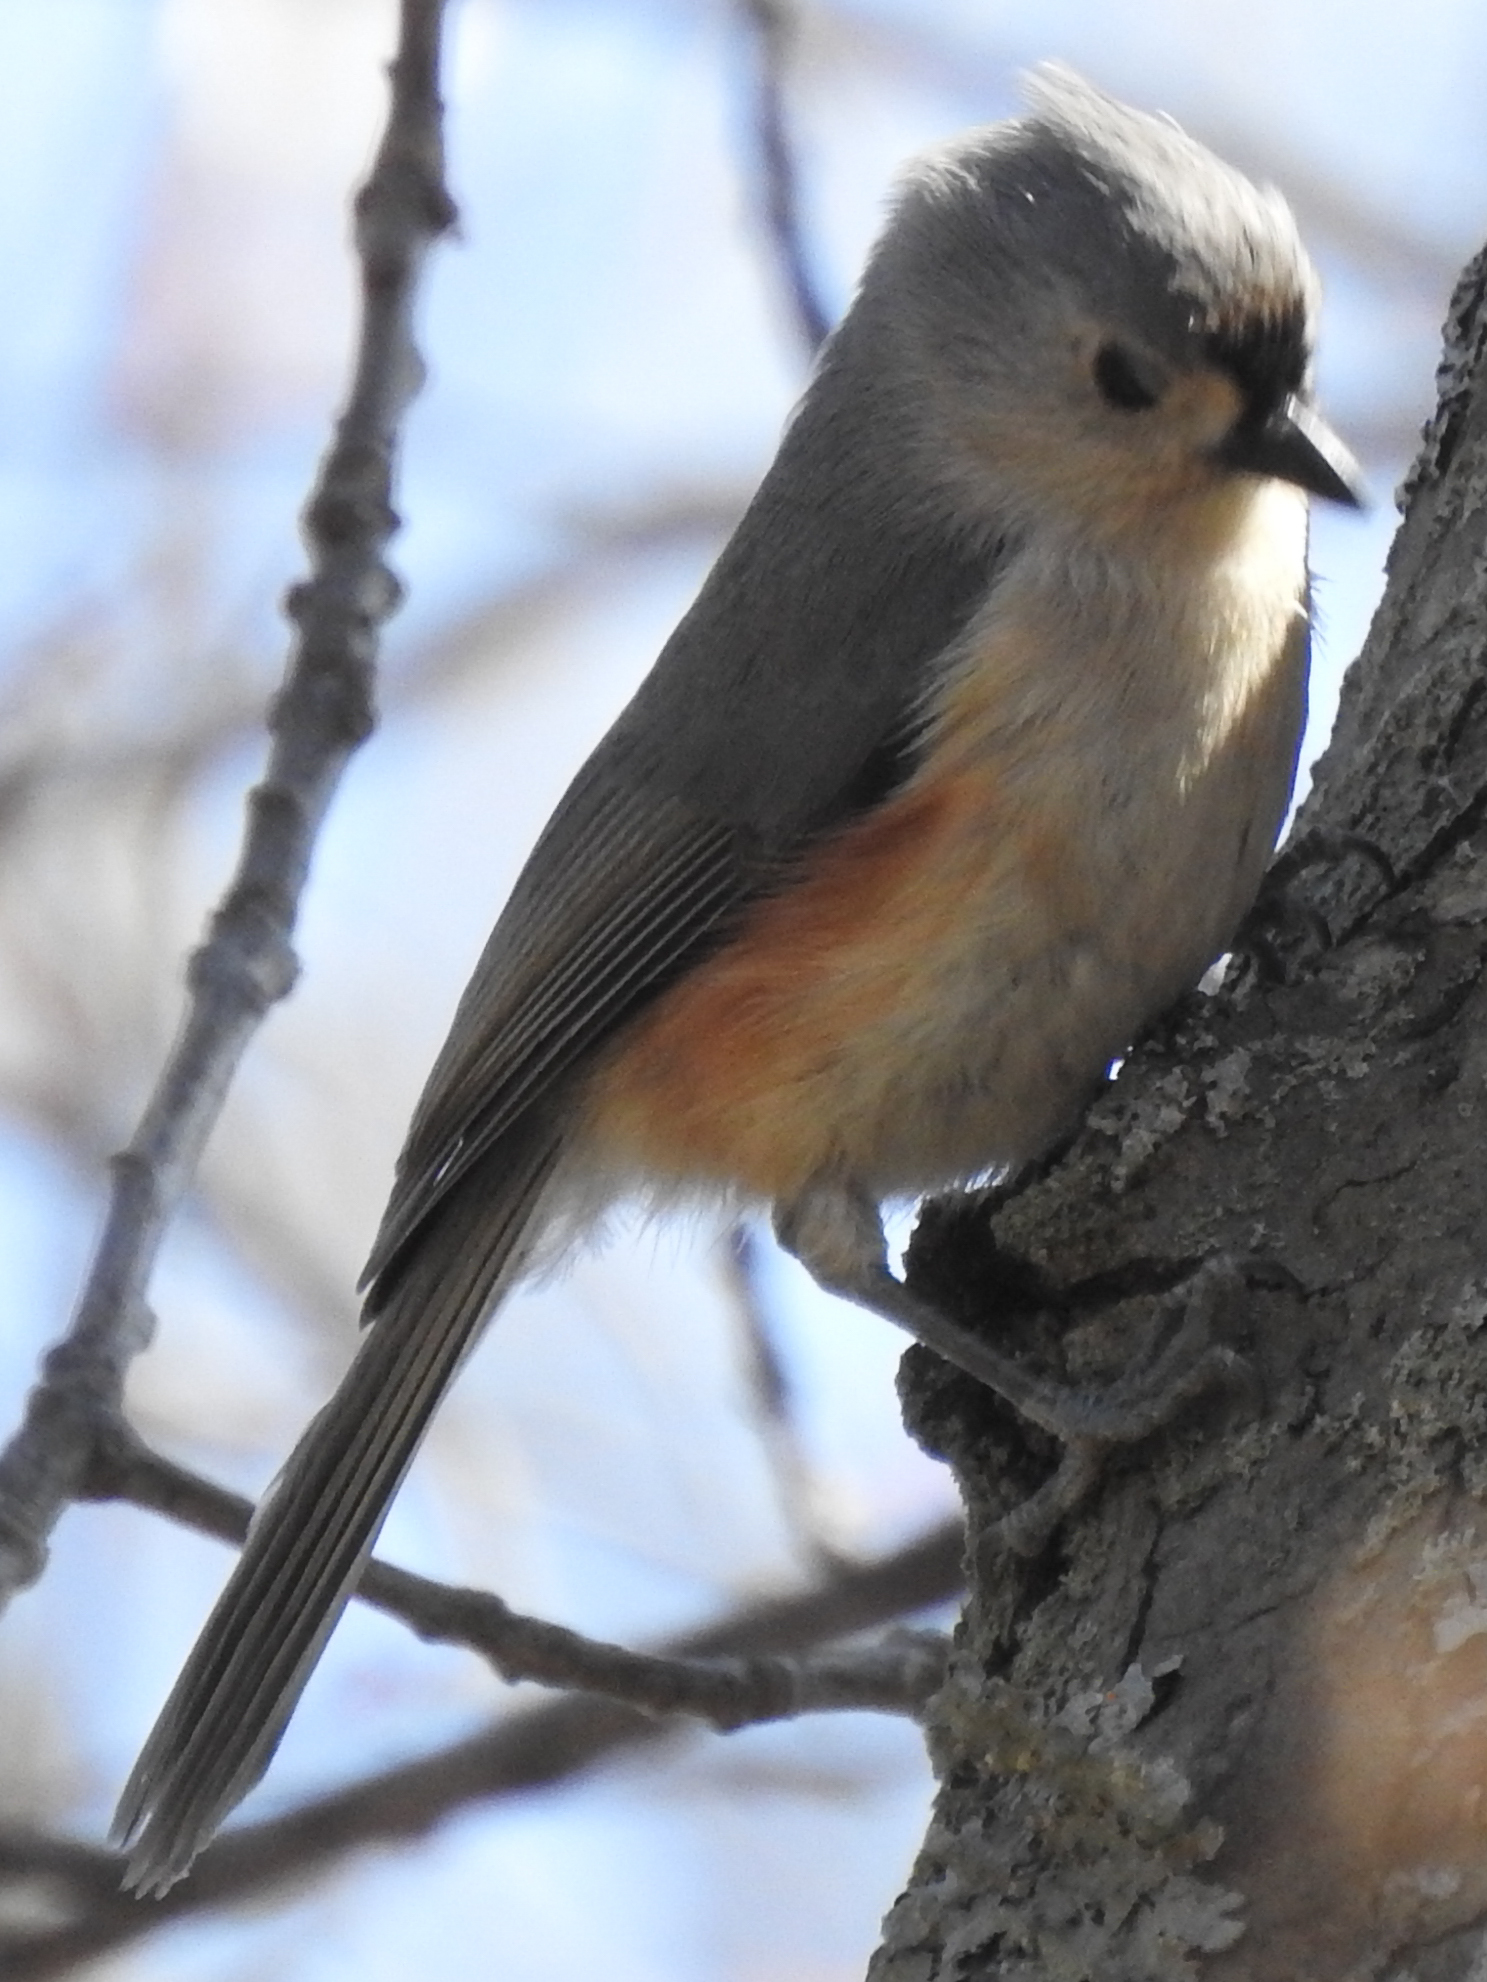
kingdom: Animalia
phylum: Chordata
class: Aves
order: Passeriformes
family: Paridae
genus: Baeolophus
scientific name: Baeolophus bicolor
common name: Tufted titmouse
